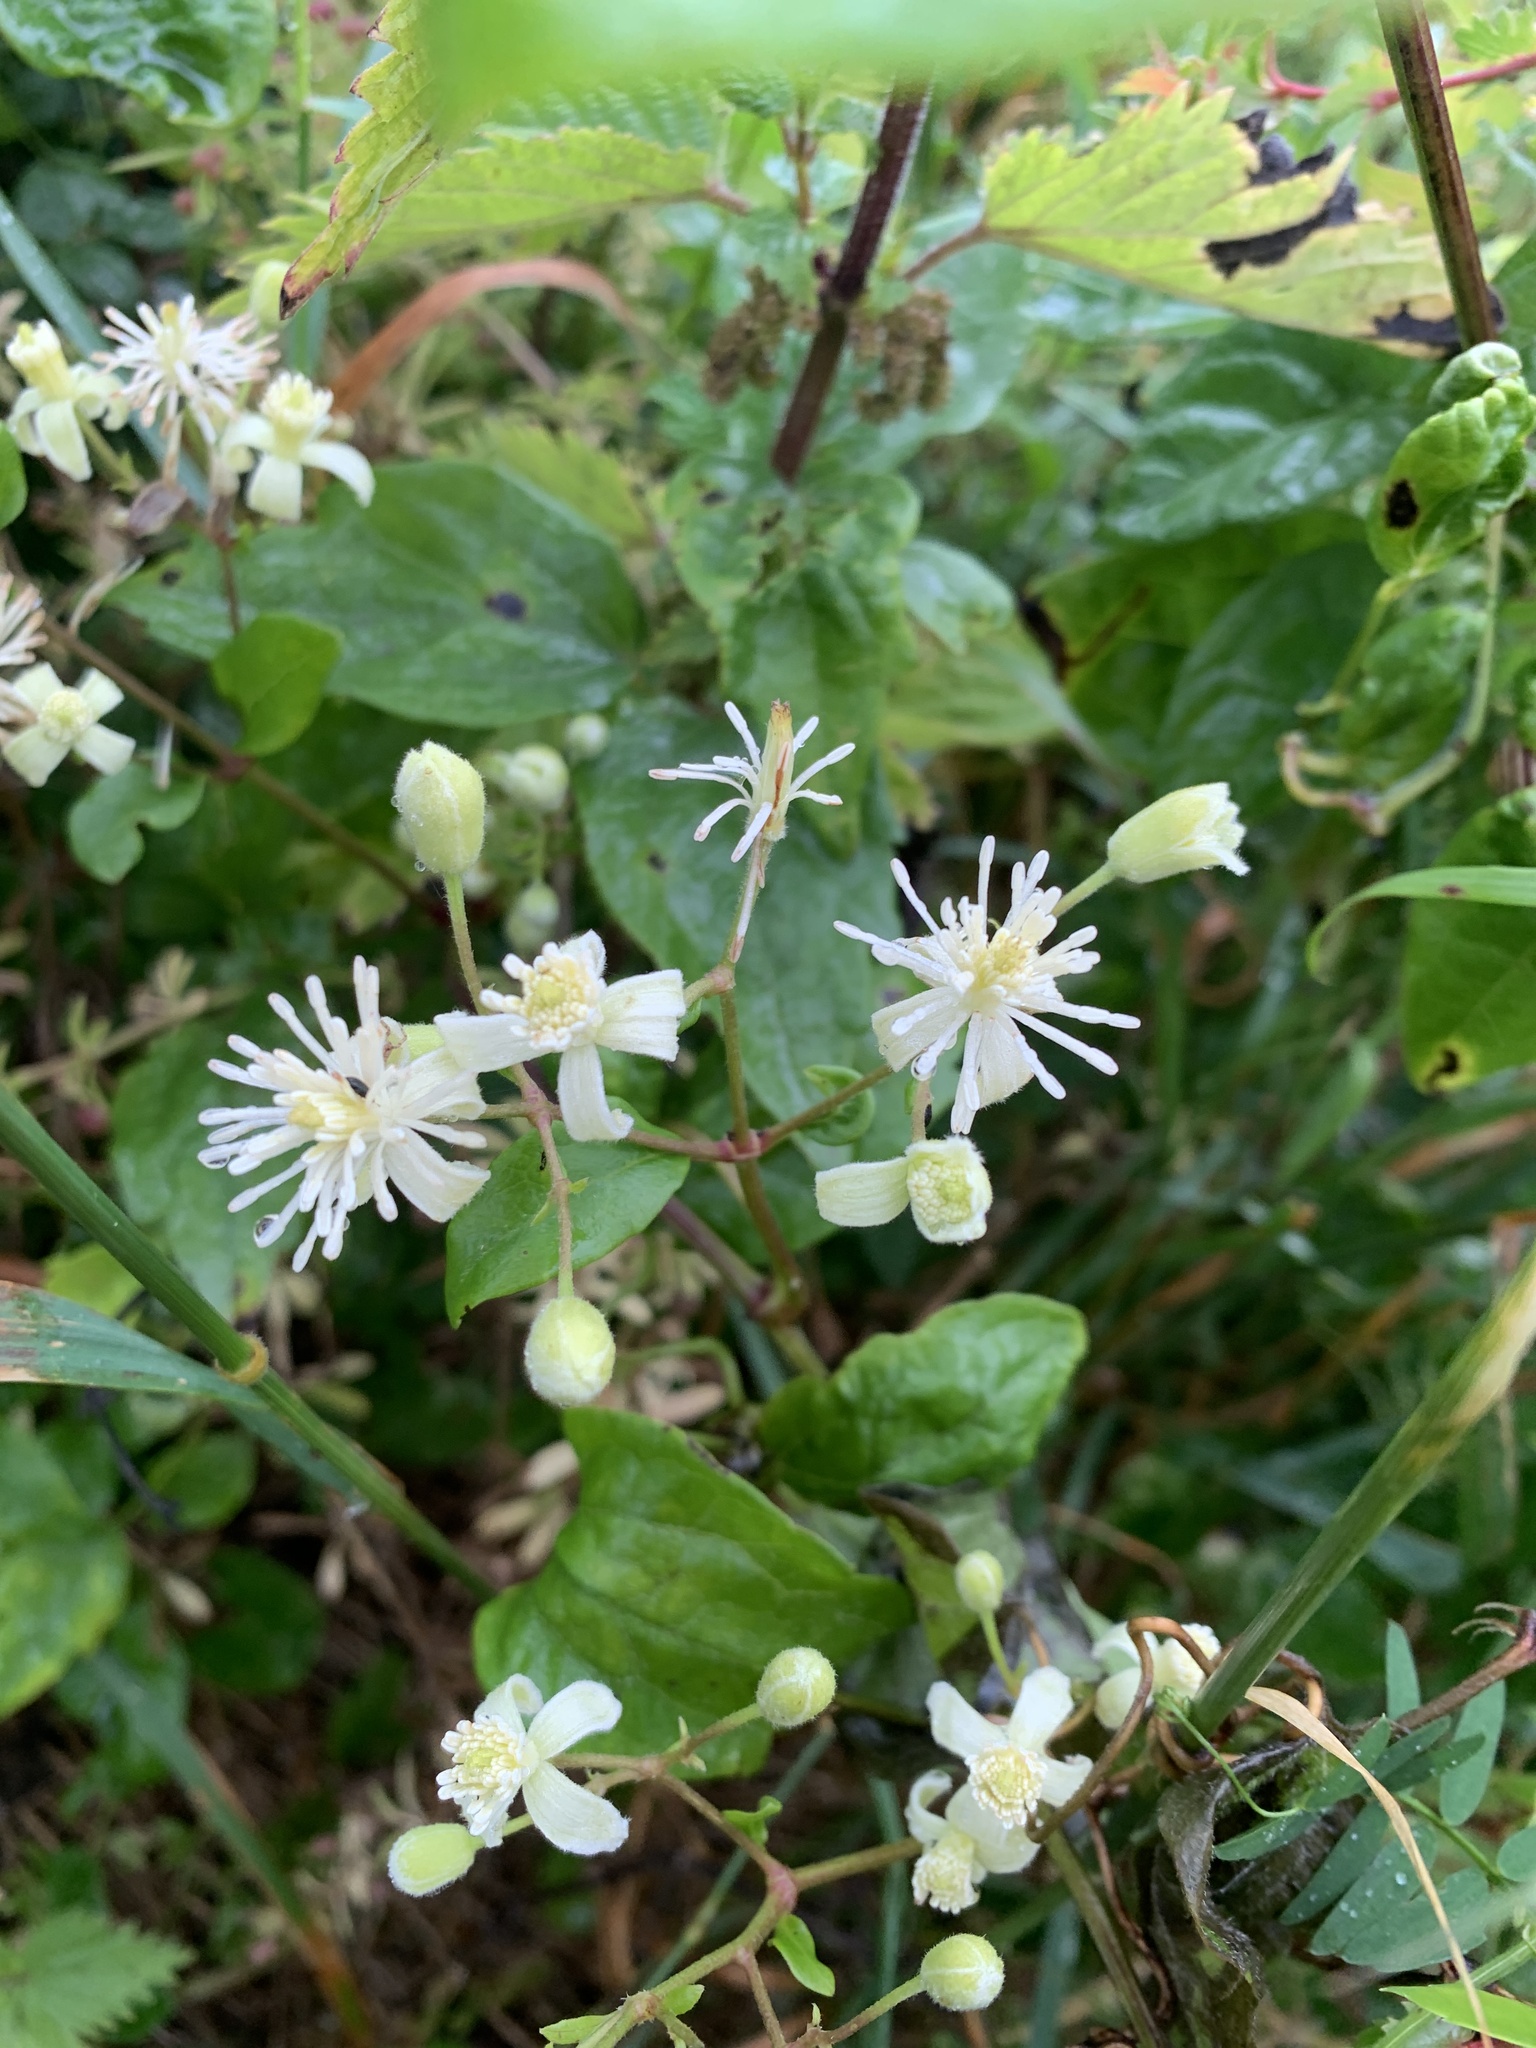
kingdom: Plantae
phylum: Tracheophyta
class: Magnoliopsida
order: Ranunculales
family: Ranunculaceae
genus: Clematis
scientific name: Clematis vitalba
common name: Evergreen clematis
